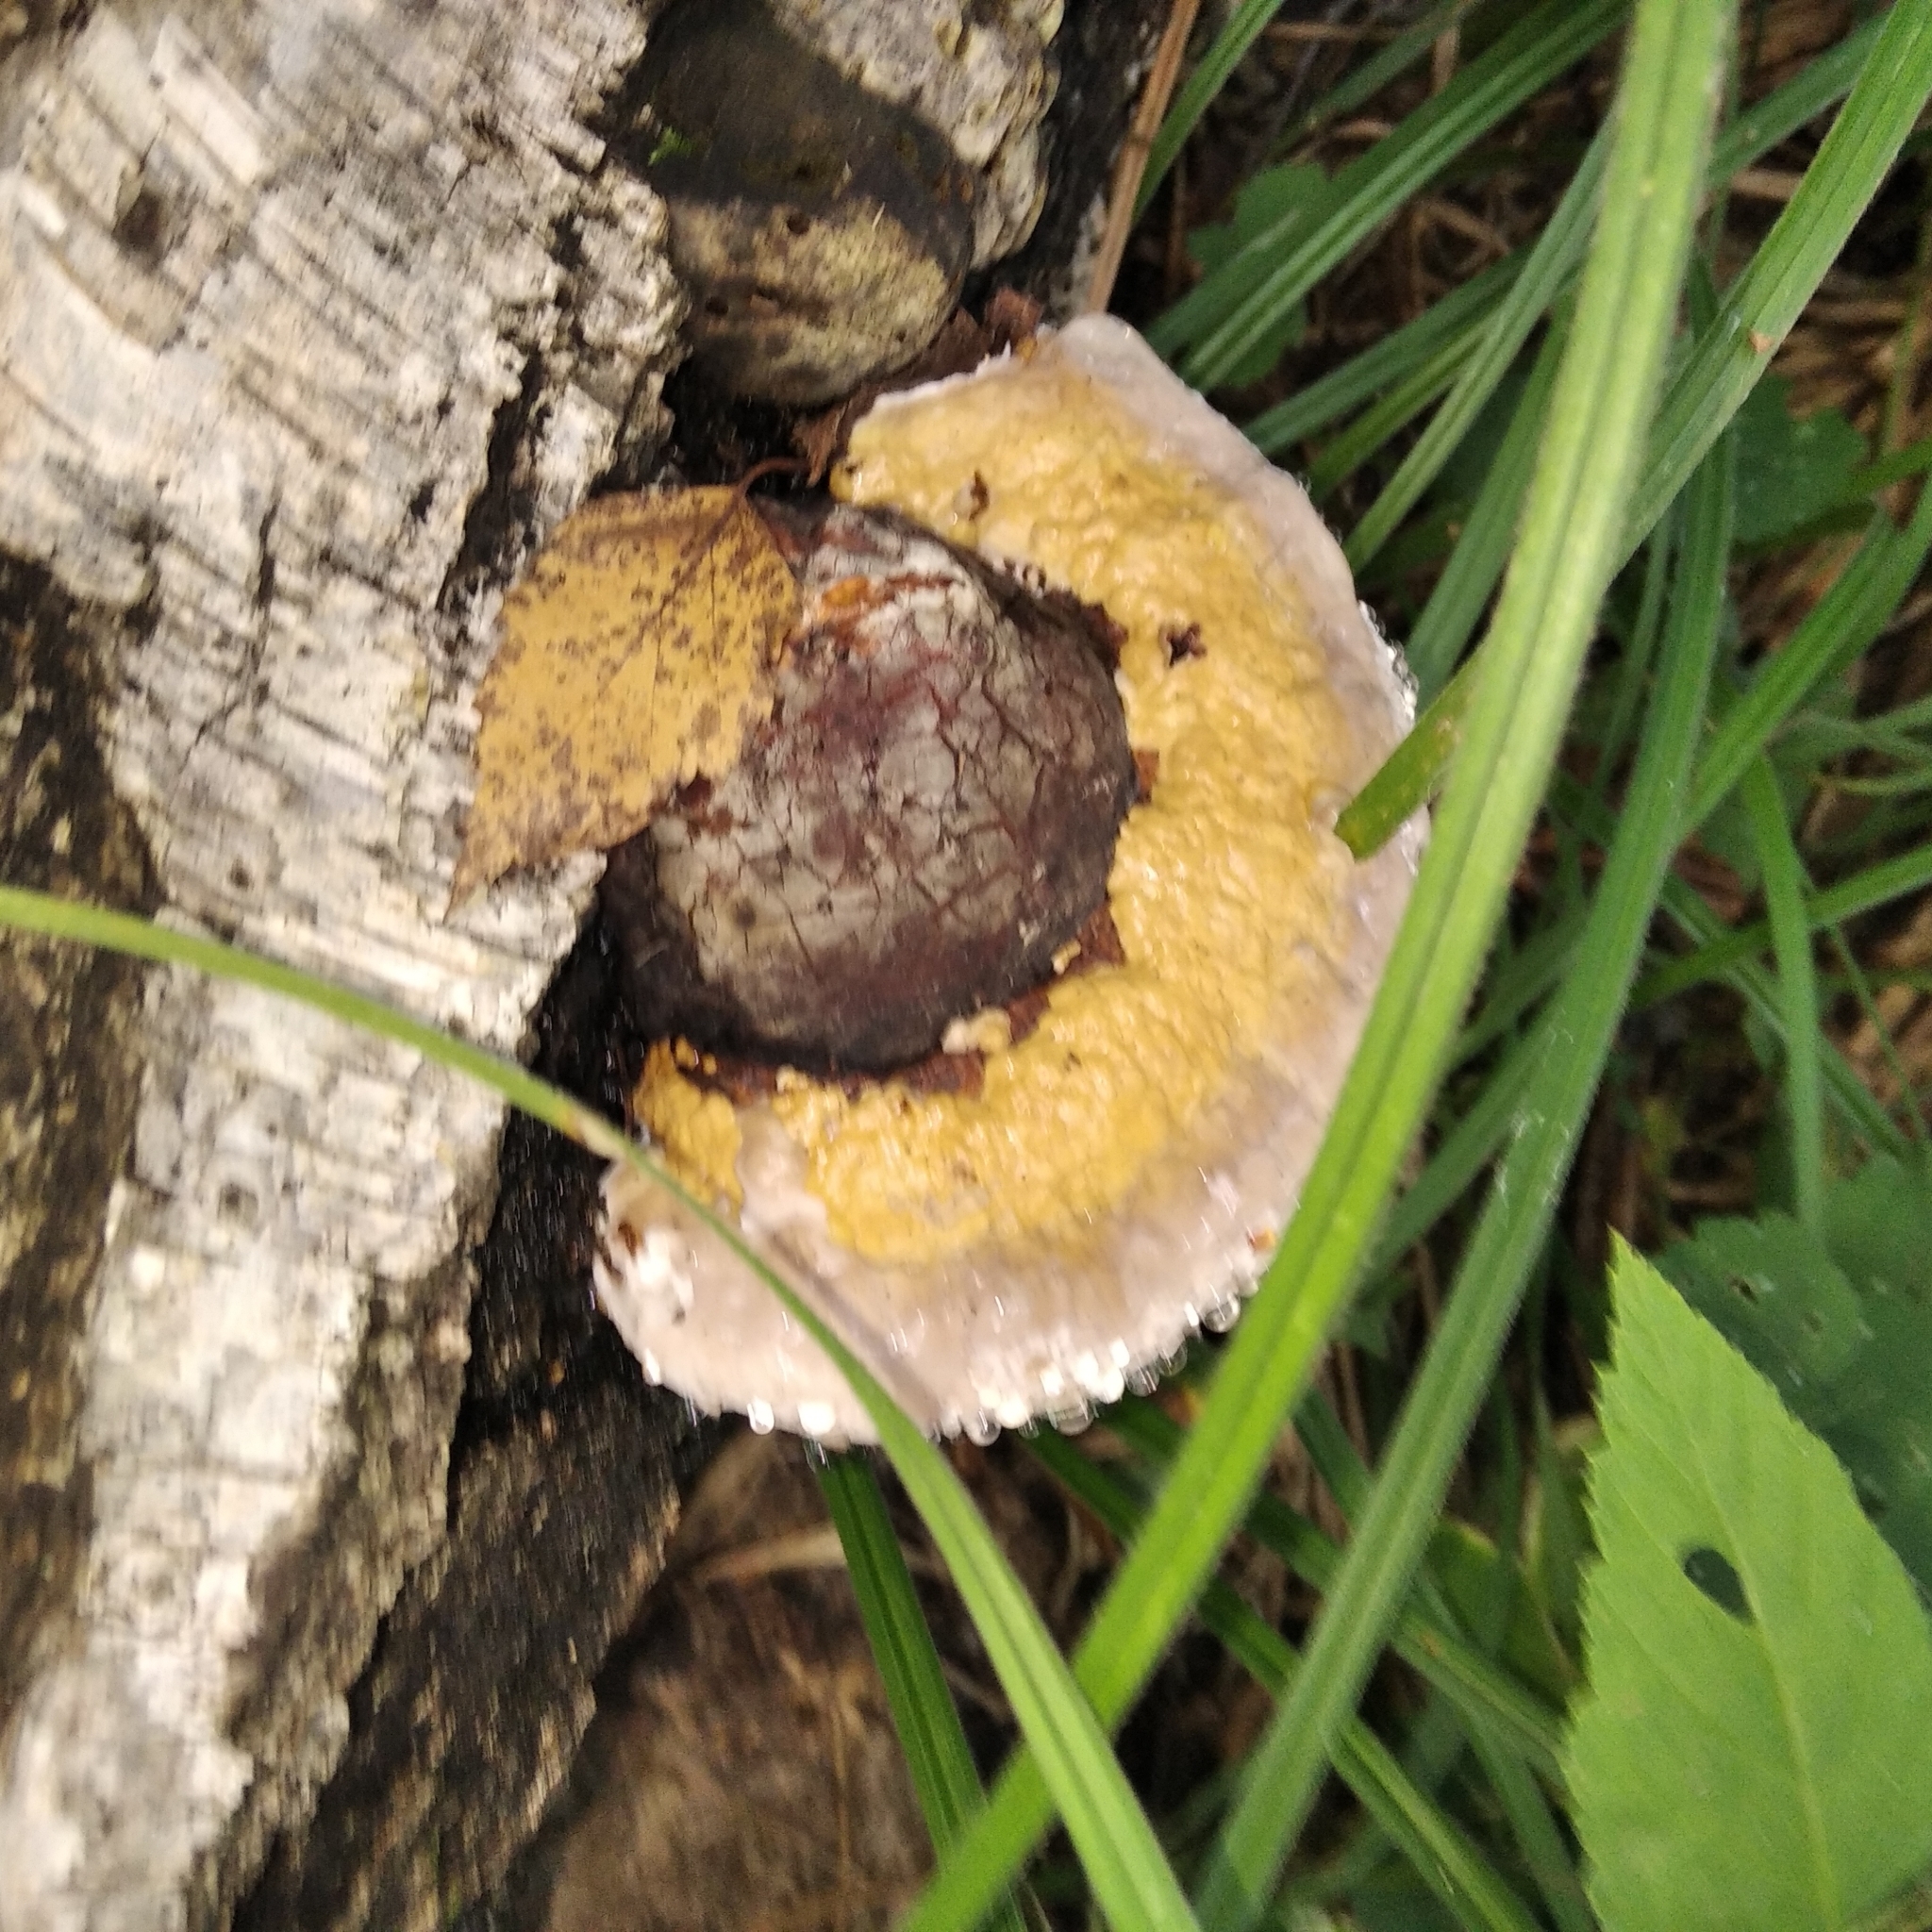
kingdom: Fungi
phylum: Basidiomycota
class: Agaricomycetes
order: Polyporales
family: Fomitopsidaceae
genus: Fomitopsis
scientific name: Fomitopsis pinicola
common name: Red-belted bracket
